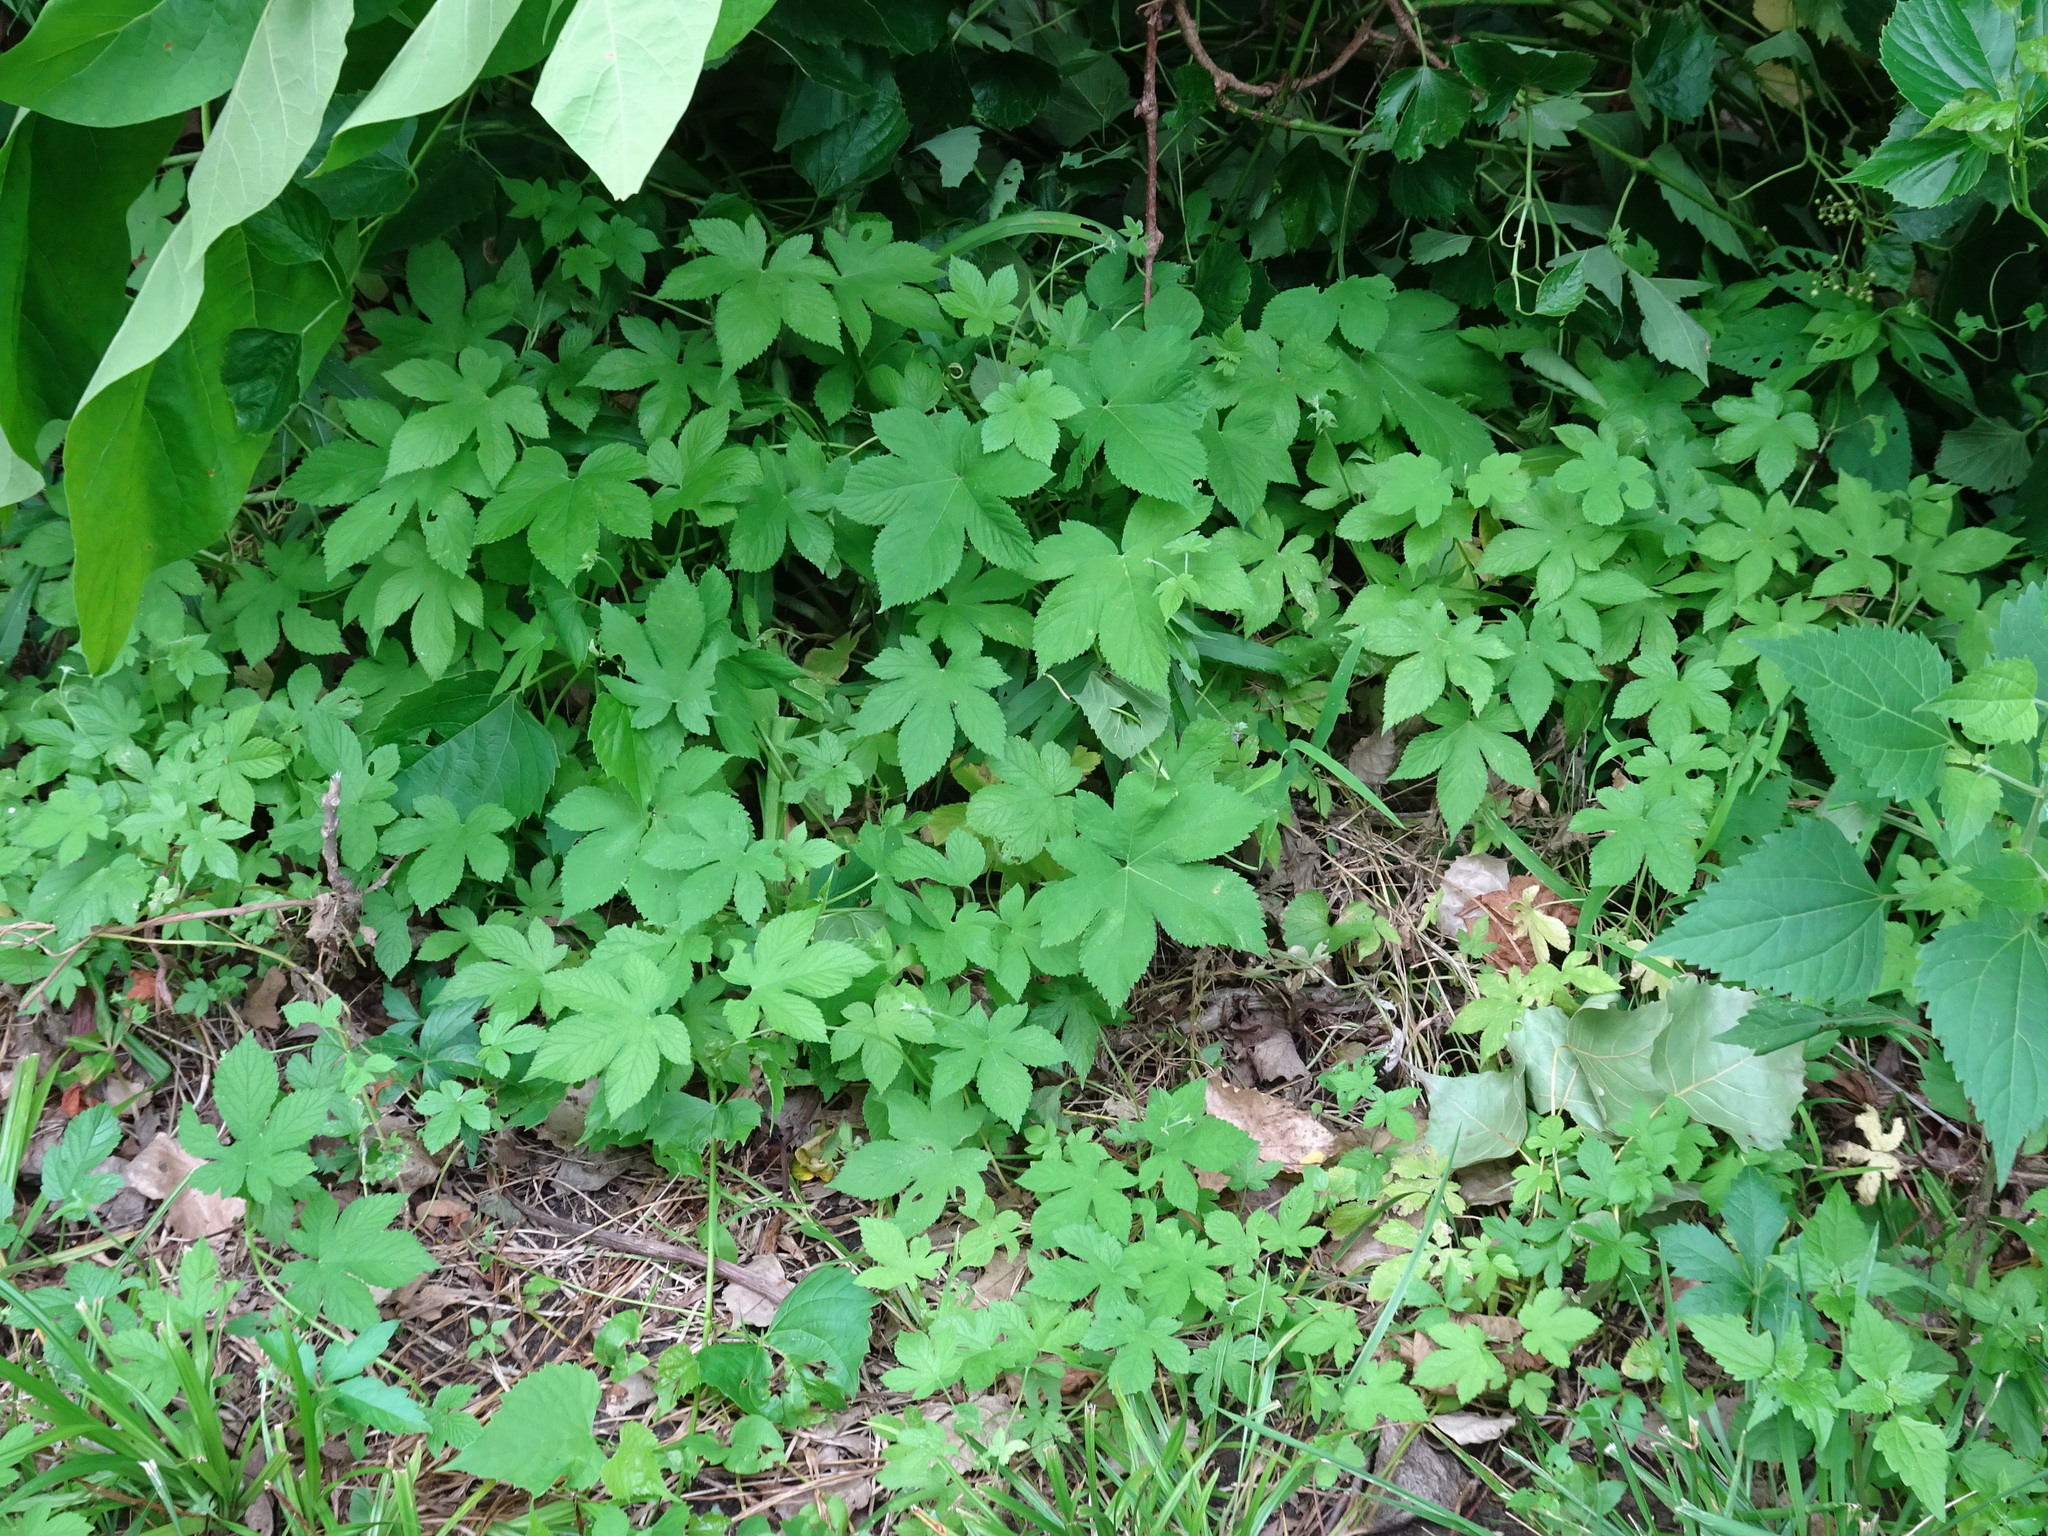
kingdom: Plantae
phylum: Tracheophyta
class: Magnoliopsida
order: Rosales
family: Cannabaceae
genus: Humulus
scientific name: Humulus scandens
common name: Japanese hop
